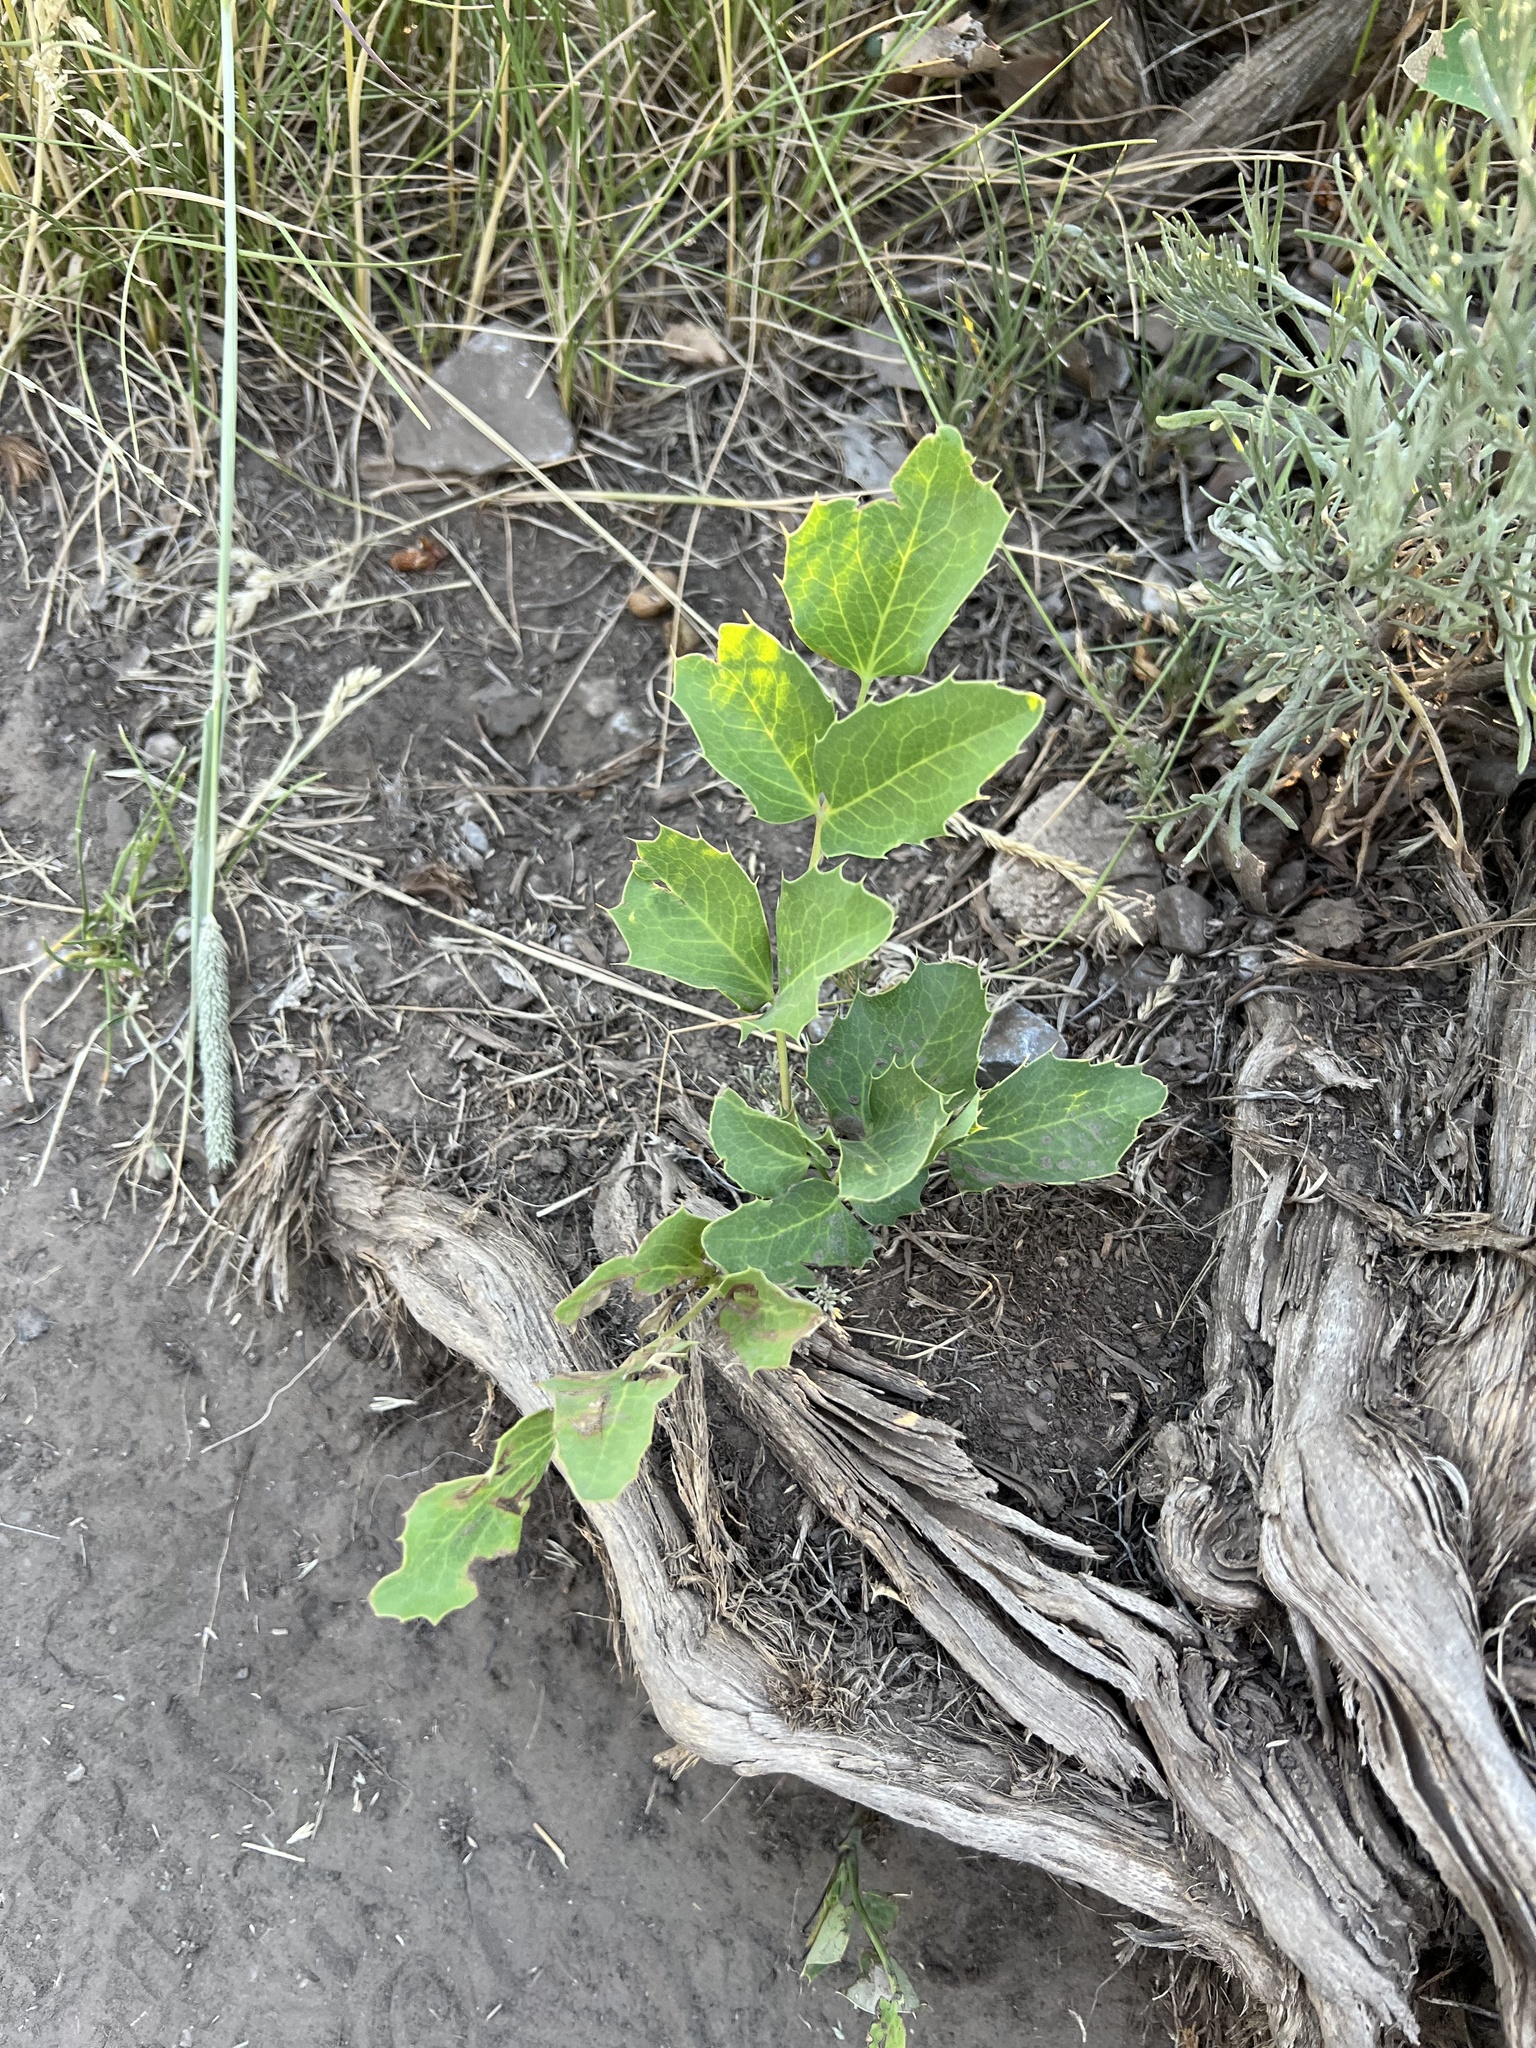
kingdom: Plantae
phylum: Tracheophyta
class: Magnoliopsida
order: Ranunculales
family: Berberidaceae
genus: Mahonia
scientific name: Mahonia repens
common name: Creeping oregon-grape
